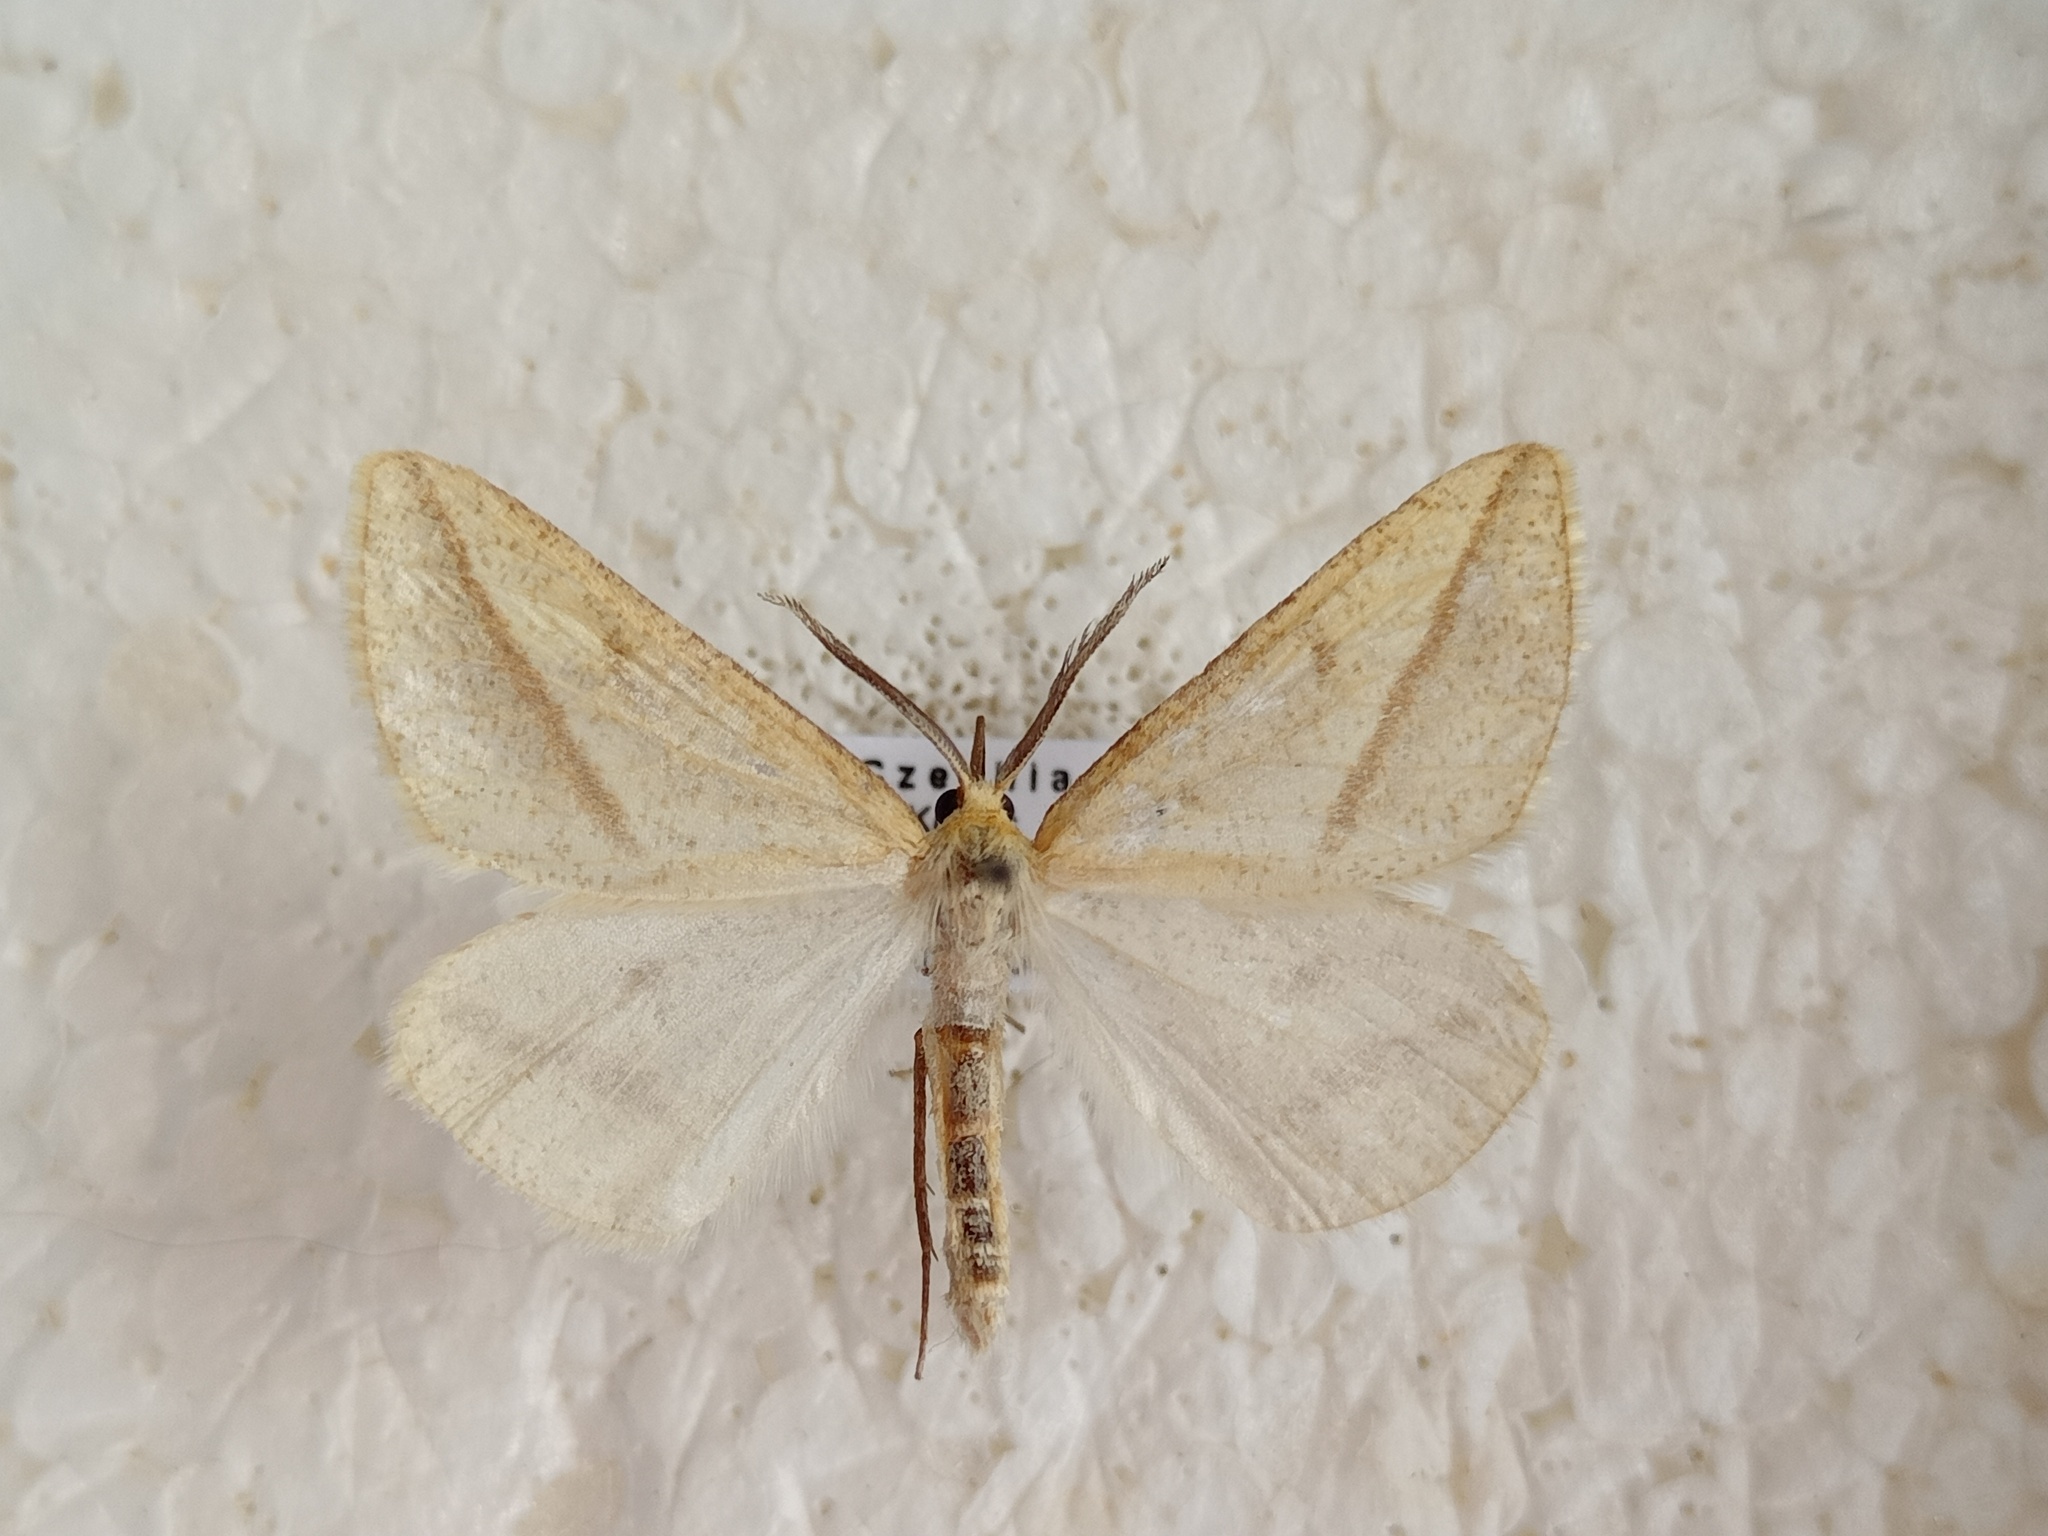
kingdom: Animalia
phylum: Arthropoda
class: Insecta
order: Lepidoptera
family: Geometridae
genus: Aspitates
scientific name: Aspitates gilvaria
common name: Straw belle
